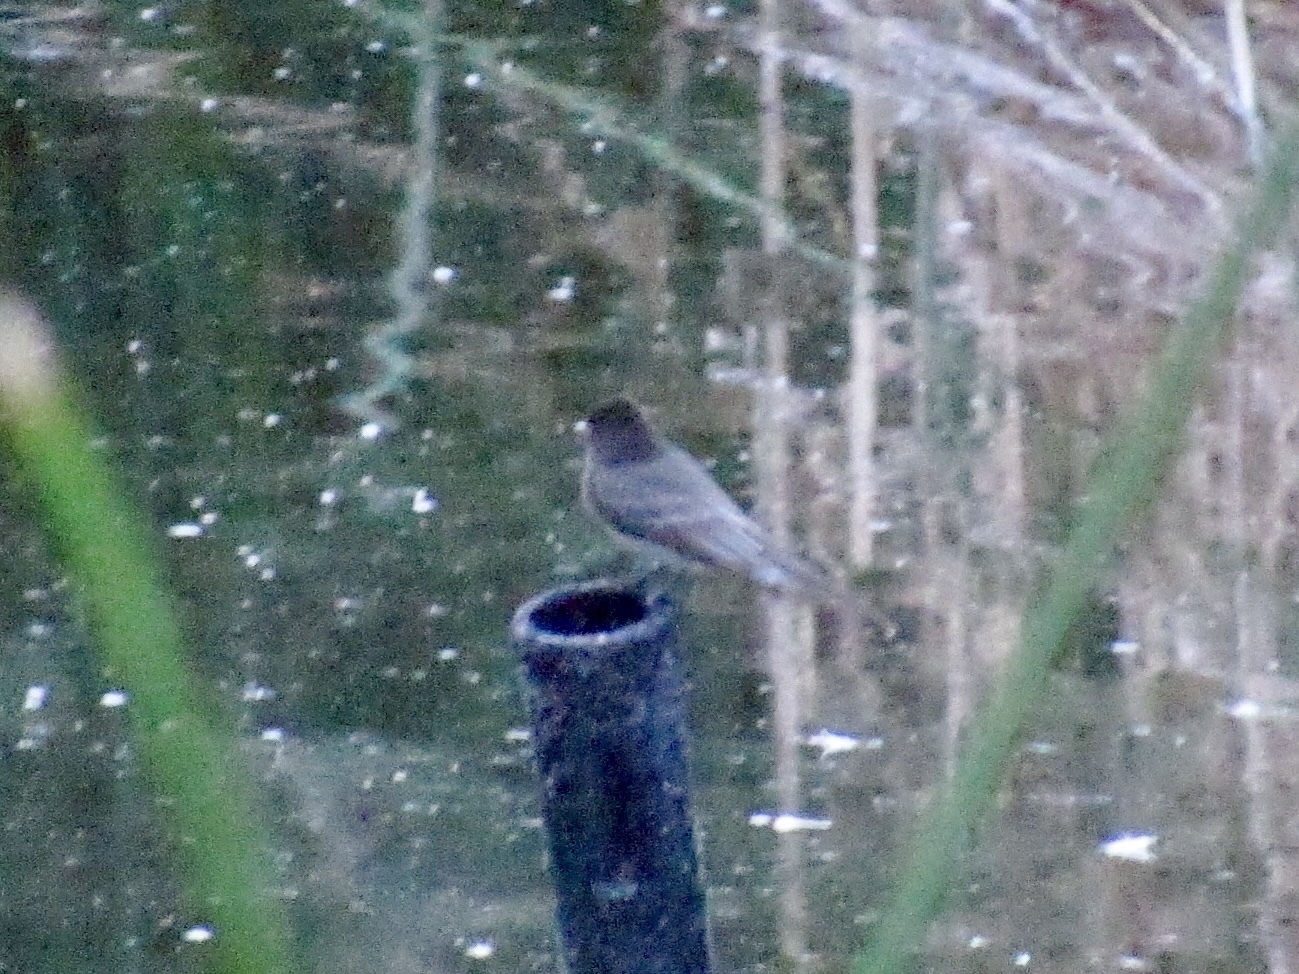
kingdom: Animalia
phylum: Chordata
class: Aves
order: Passeriformes
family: Tyrannidae
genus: Sayornis
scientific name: Sayornis nigricans
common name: Black phoebe
